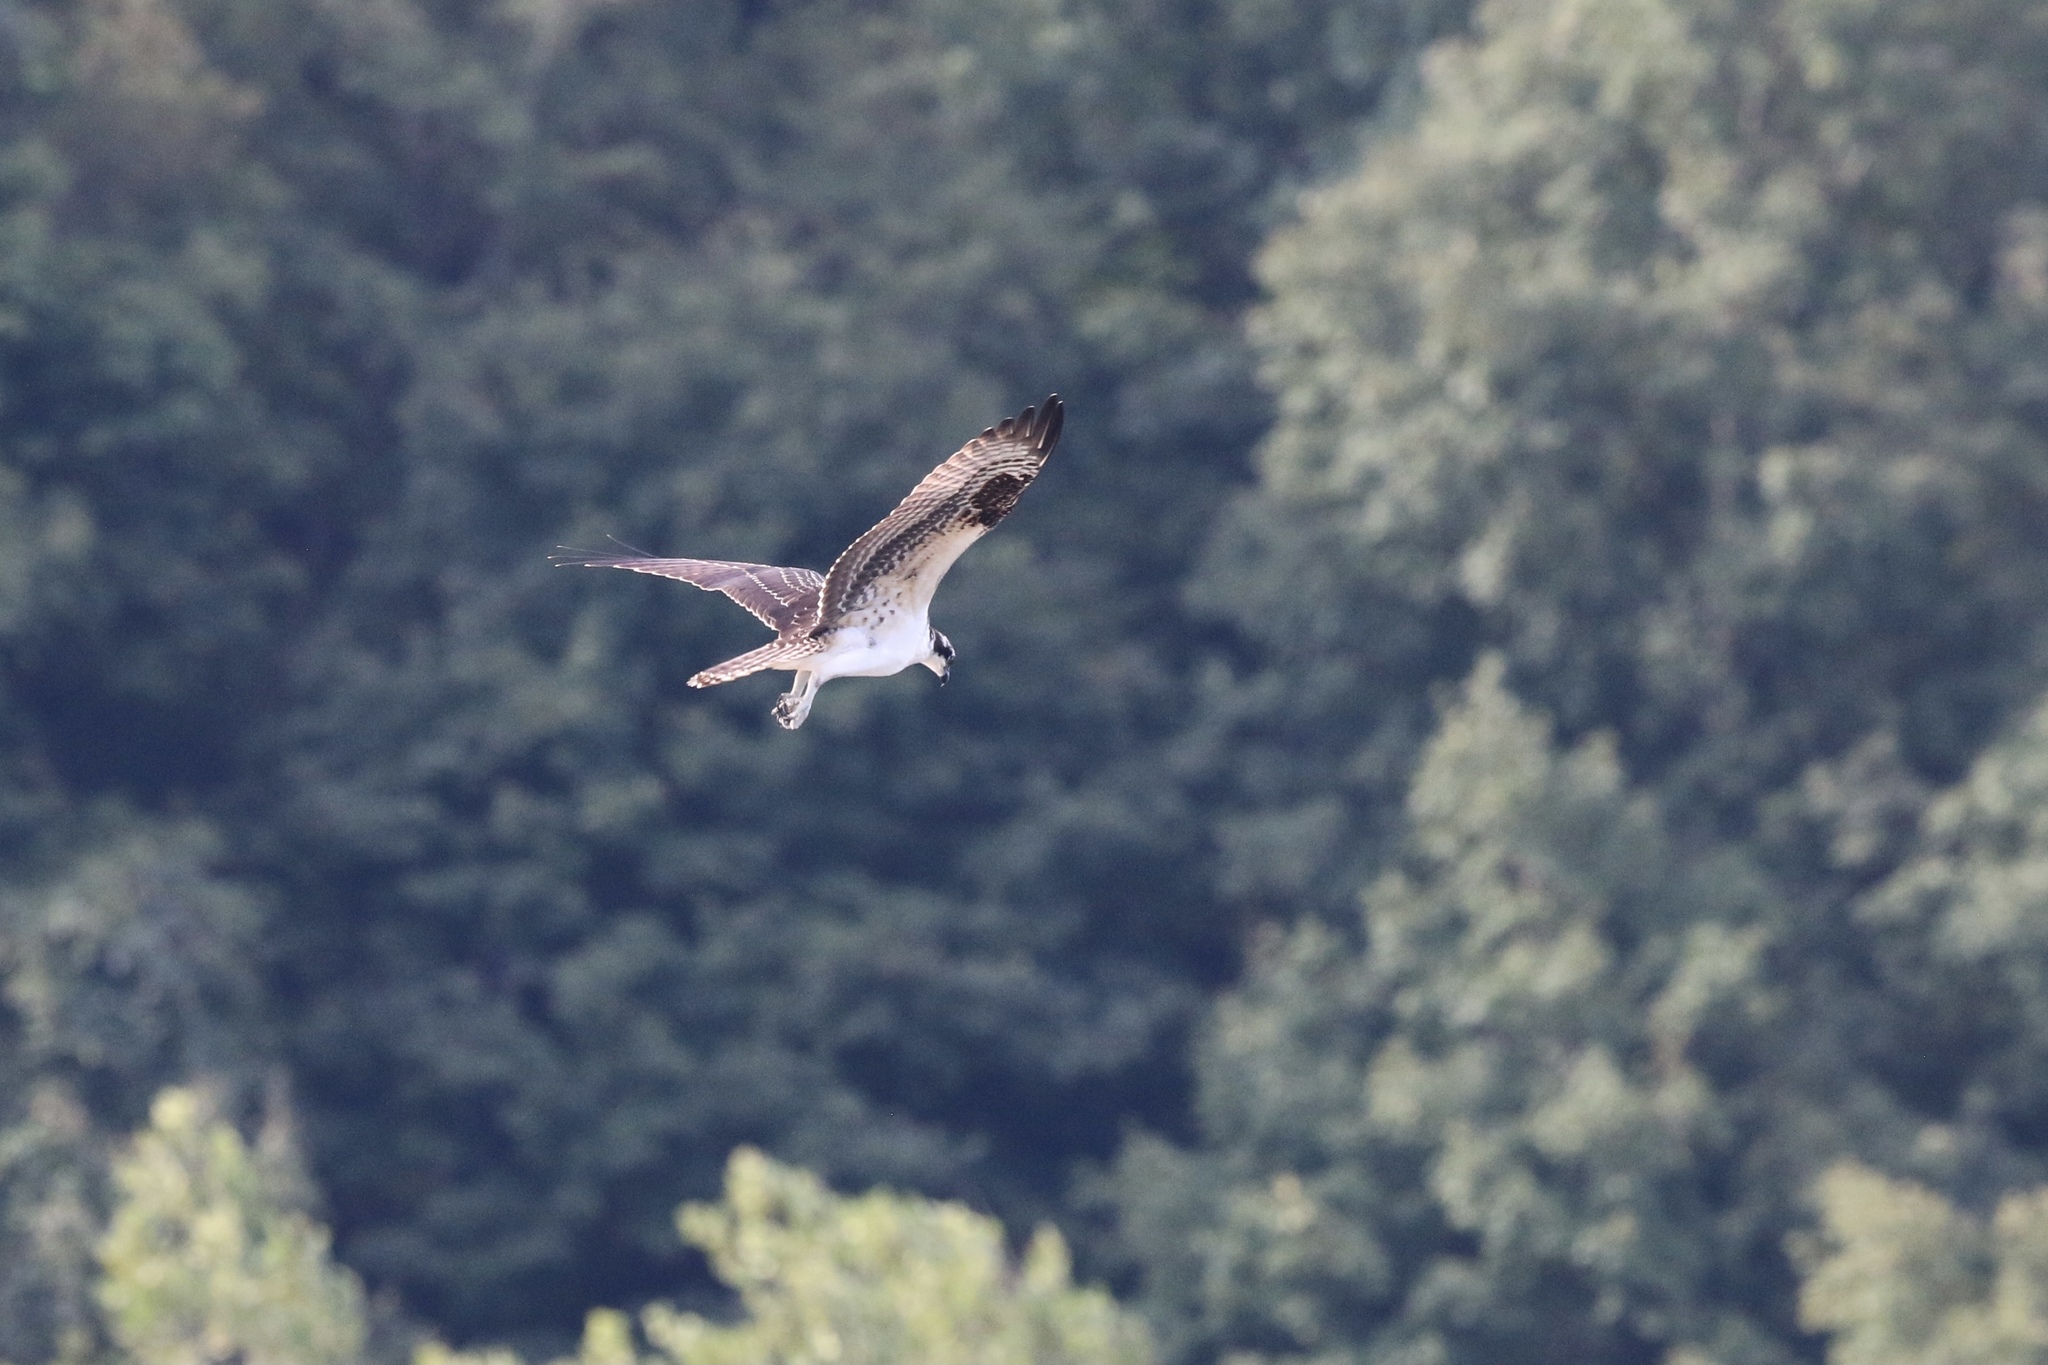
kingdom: Animalia
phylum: Chordata
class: Aves
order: Accipitriformes
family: Pandionidae
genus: Pandion
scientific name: Pandion haliaetus
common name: Osprey
